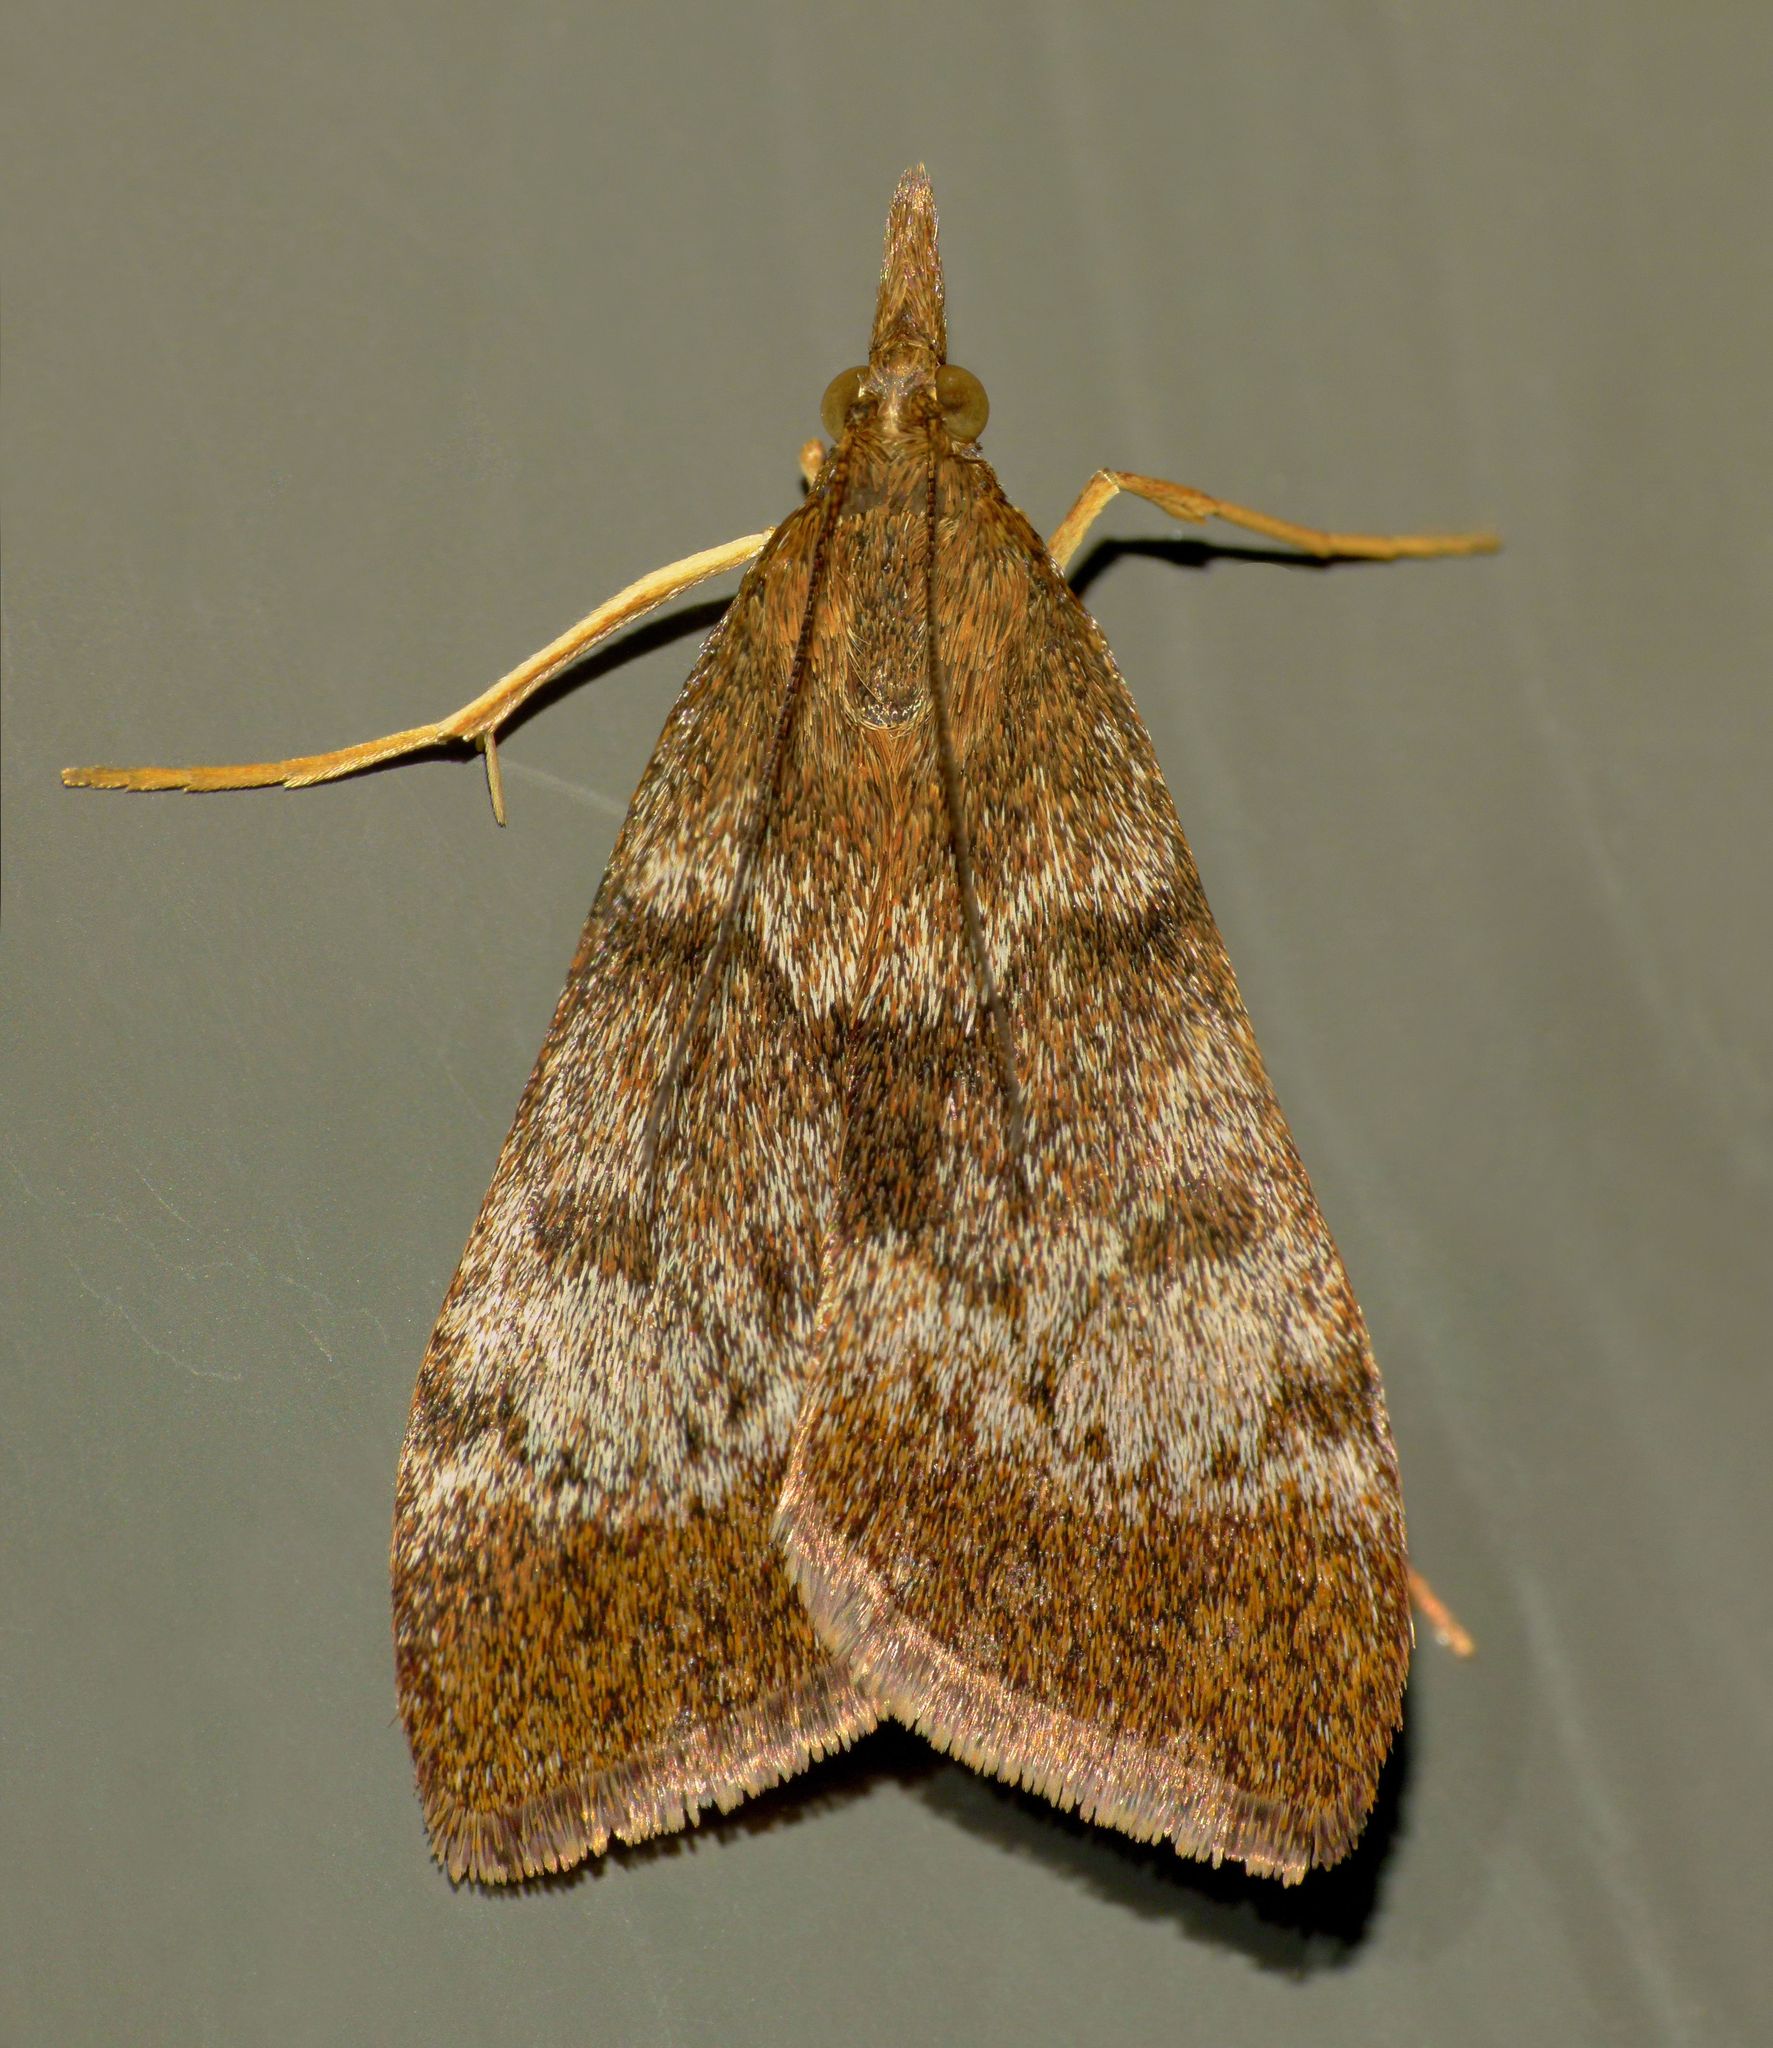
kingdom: Animalia
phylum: Arthropoda
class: Insecta
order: Lepidoptera
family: Crambidae
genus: Uresiphita
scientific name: Uresiphita
